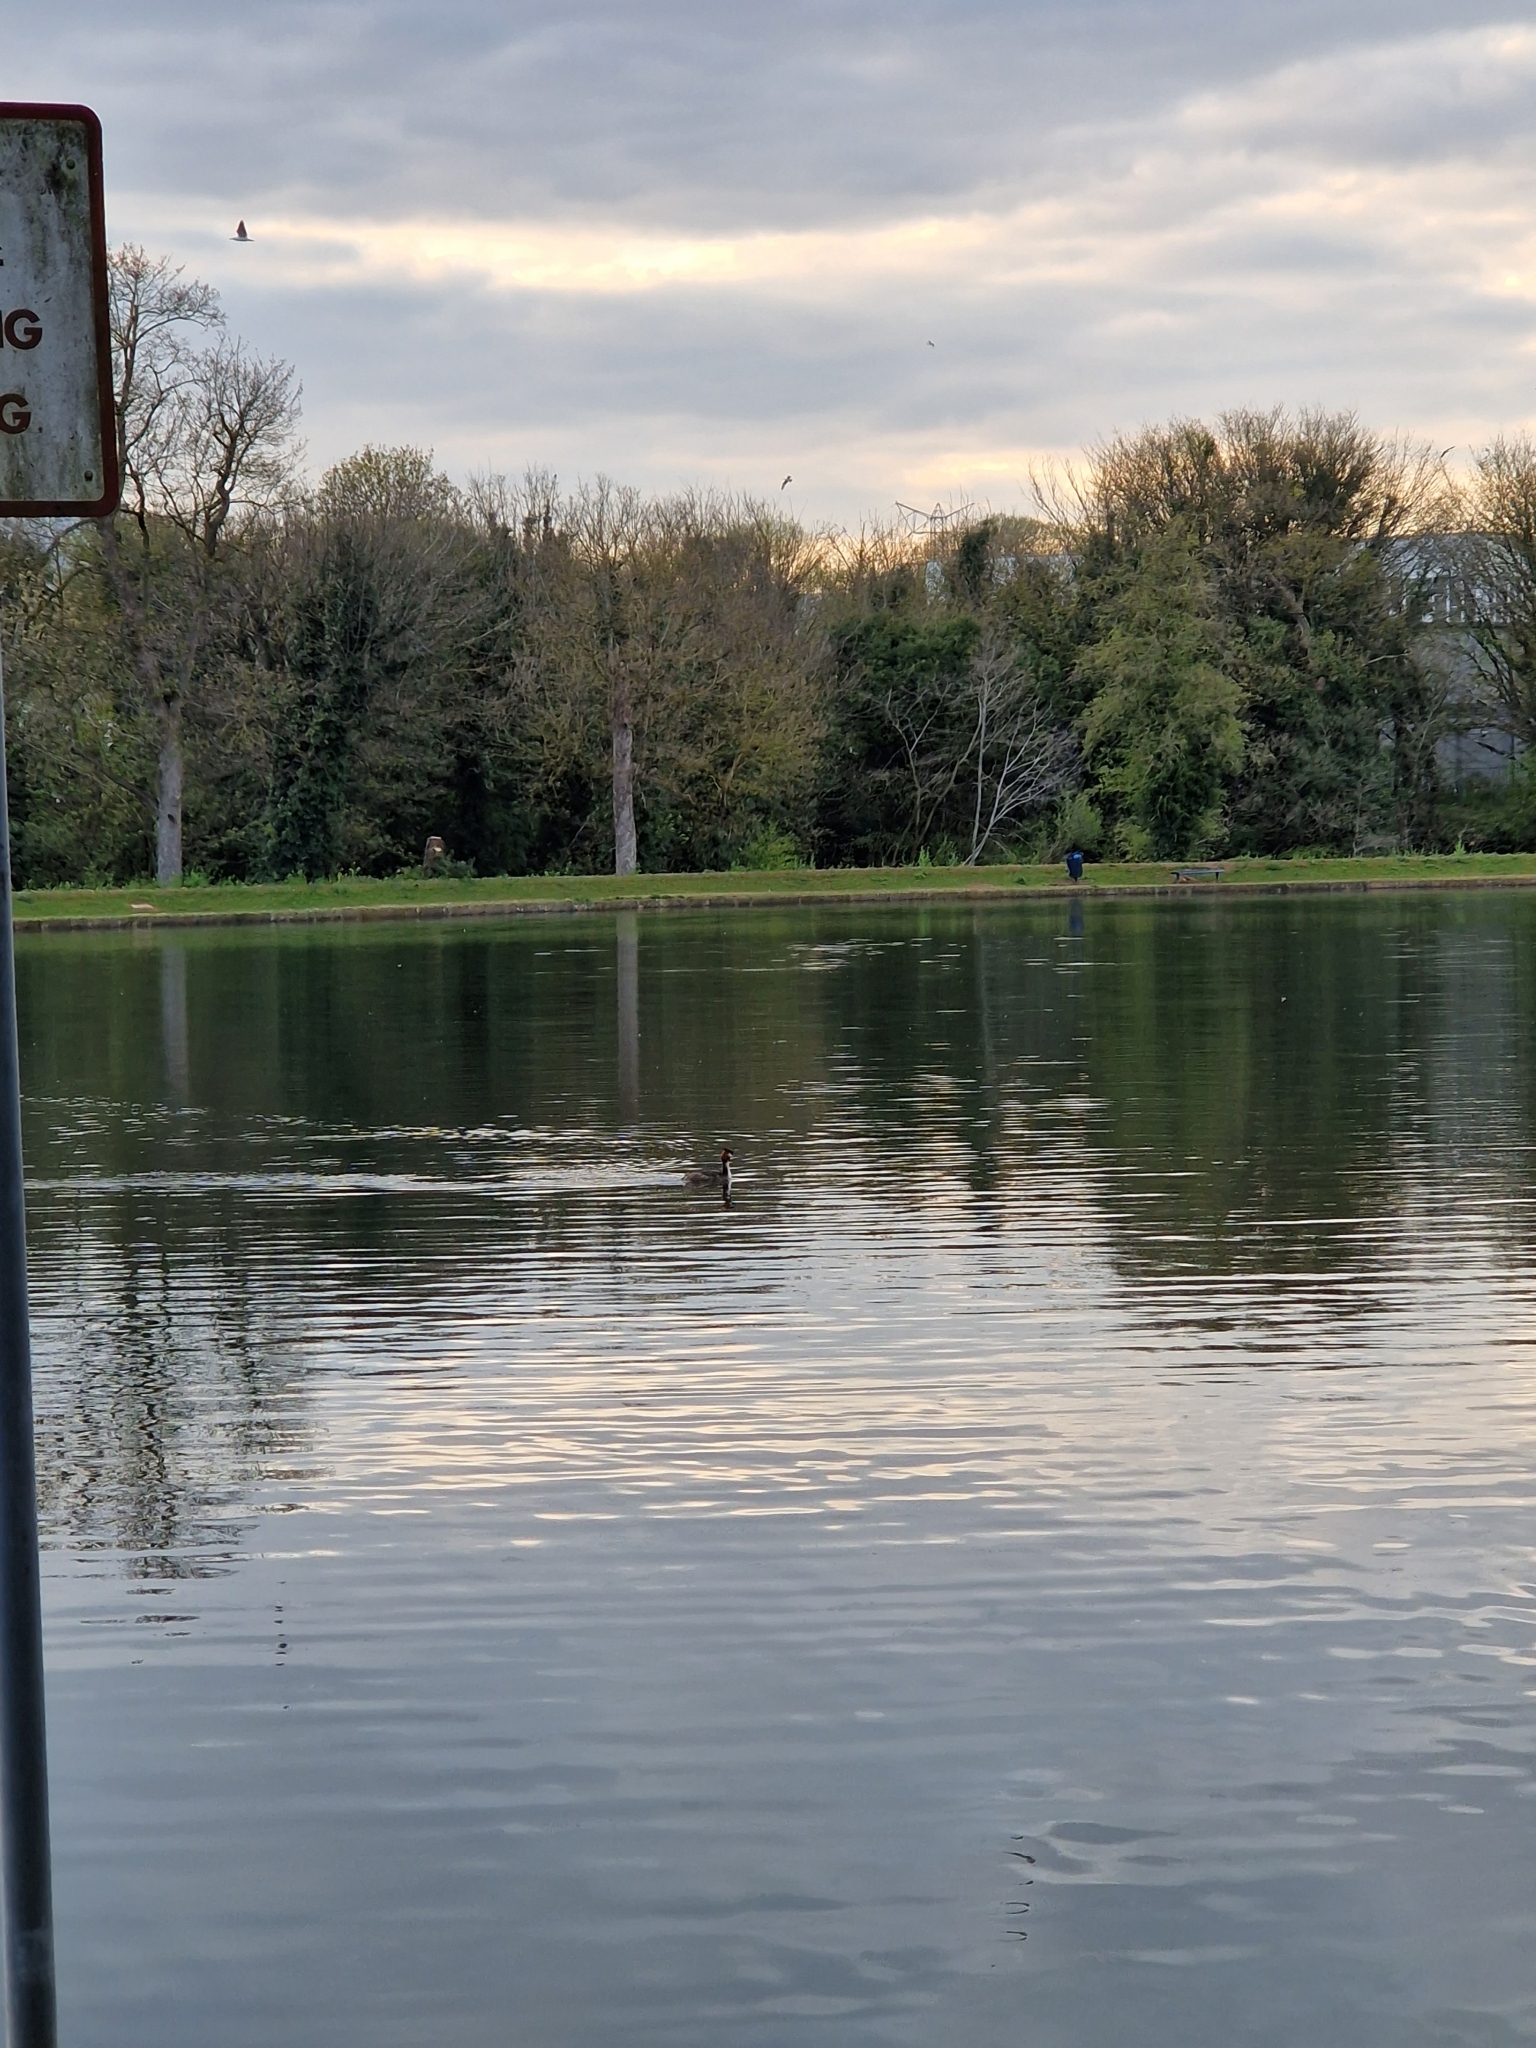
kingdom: Animalia
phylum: Chordata
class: Aves
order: Podicipediformes
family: Podicipedidae
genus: Podiceps
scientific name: Podiceps cristatus
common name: Great crested grebe
